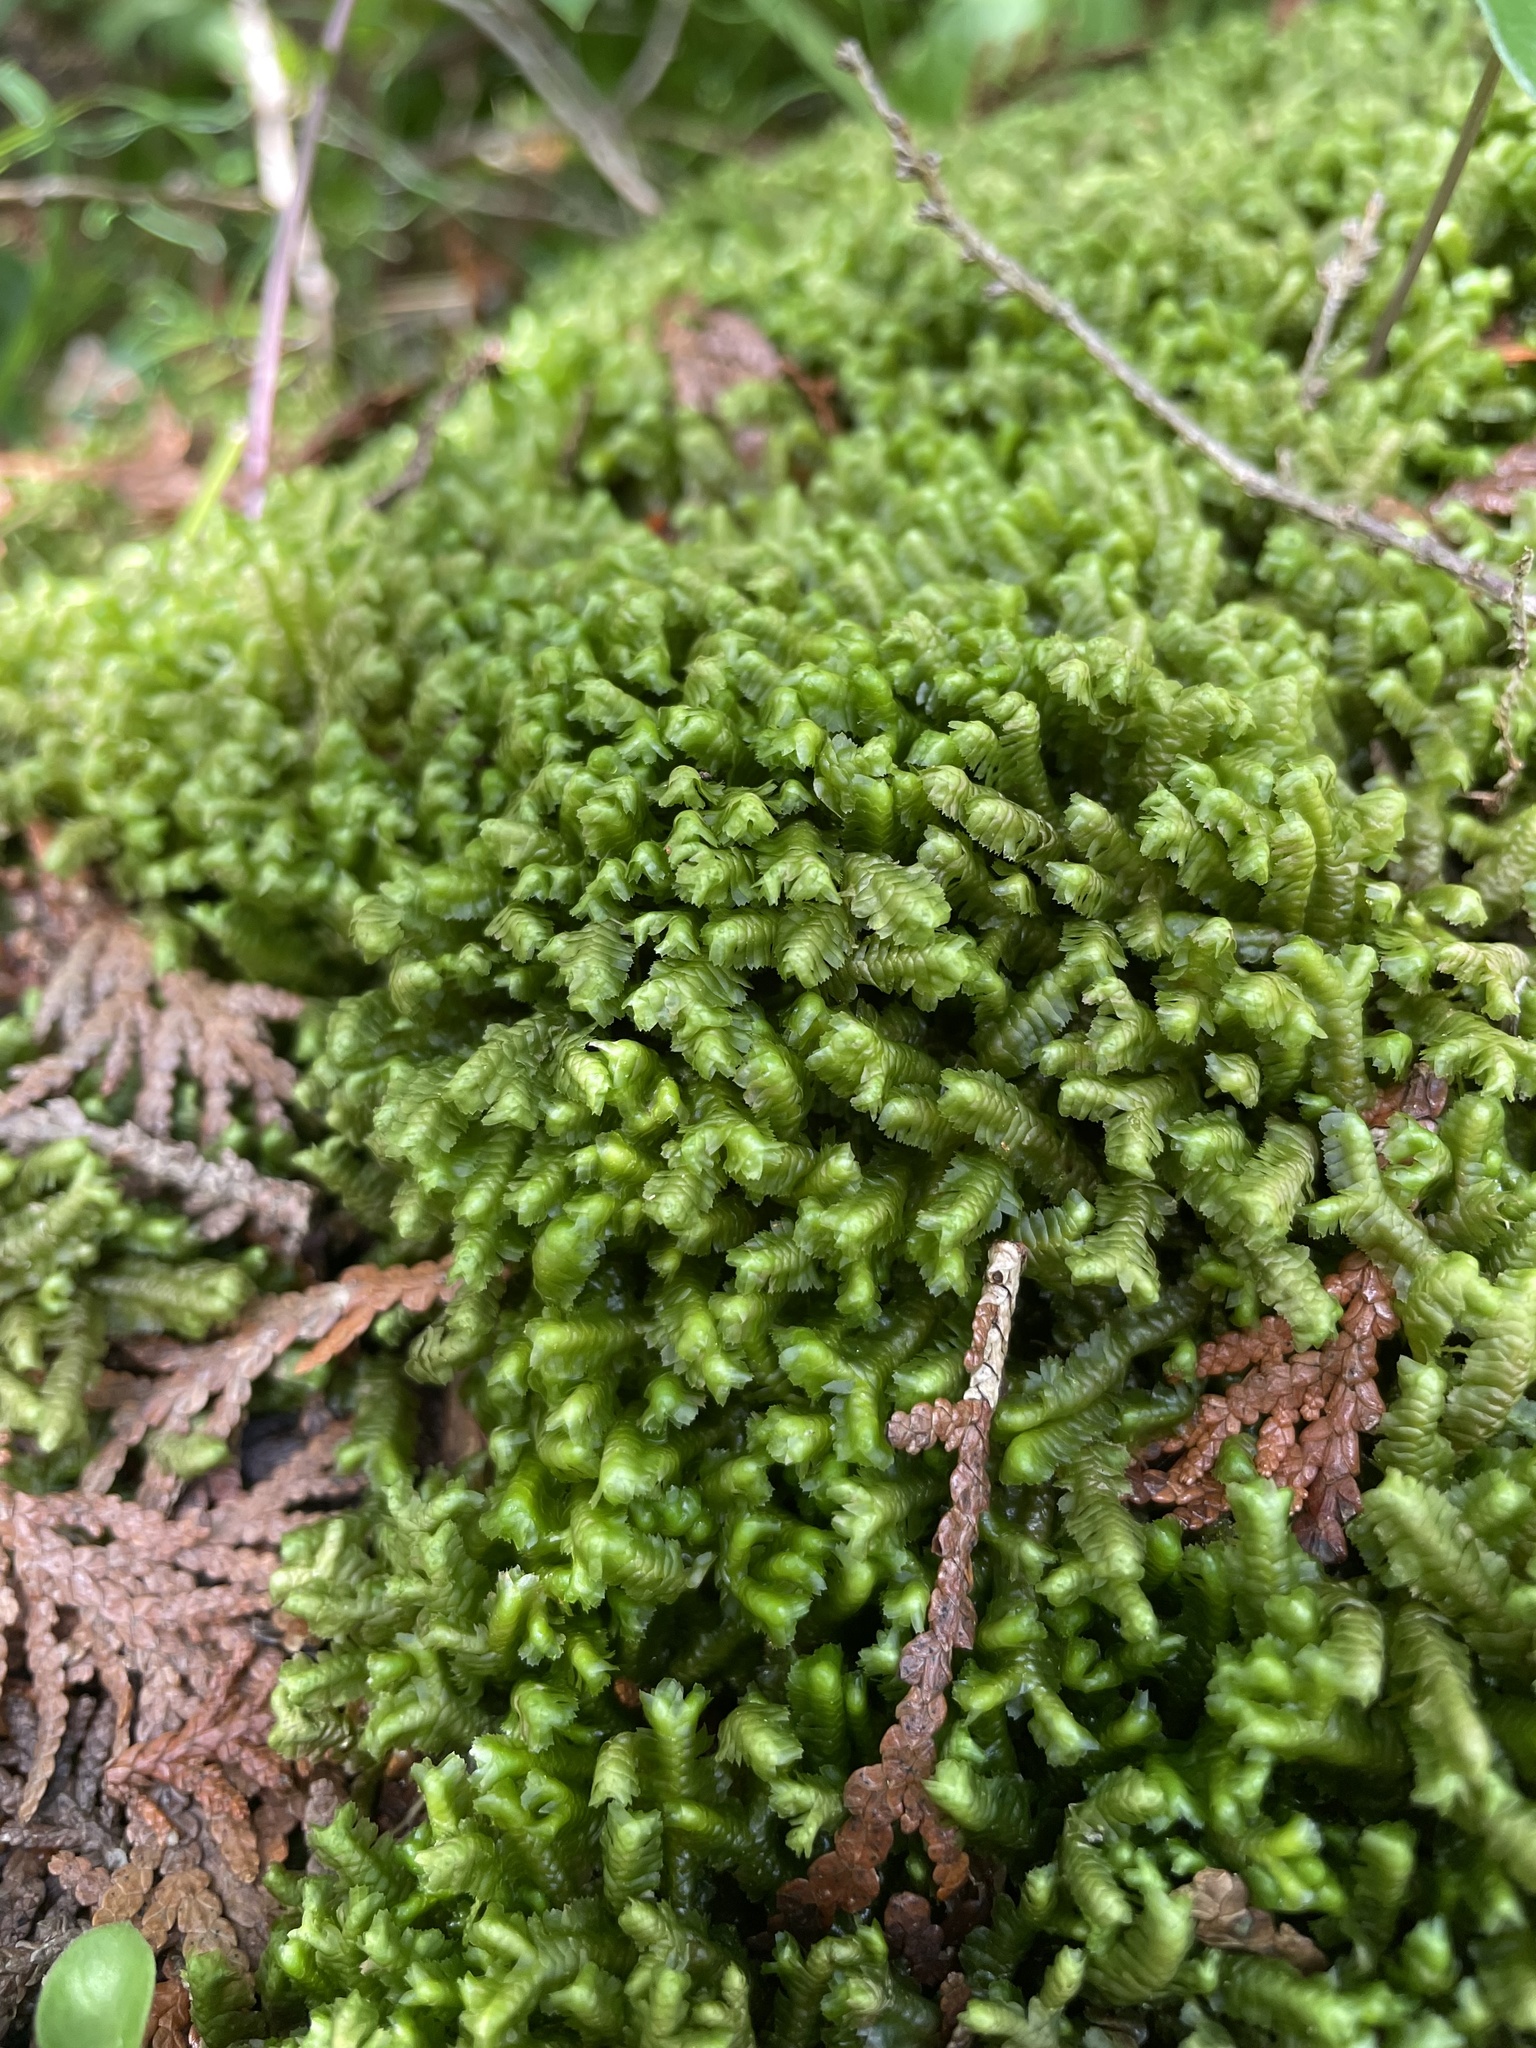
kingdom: Plantae
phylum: Marchantiophyta
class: Jungermanniopsida
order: Jungermanniales
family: Lepidoziaceae
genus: Bazzania
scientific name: Bazzania trilobata
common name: Three-lobed whipwort
